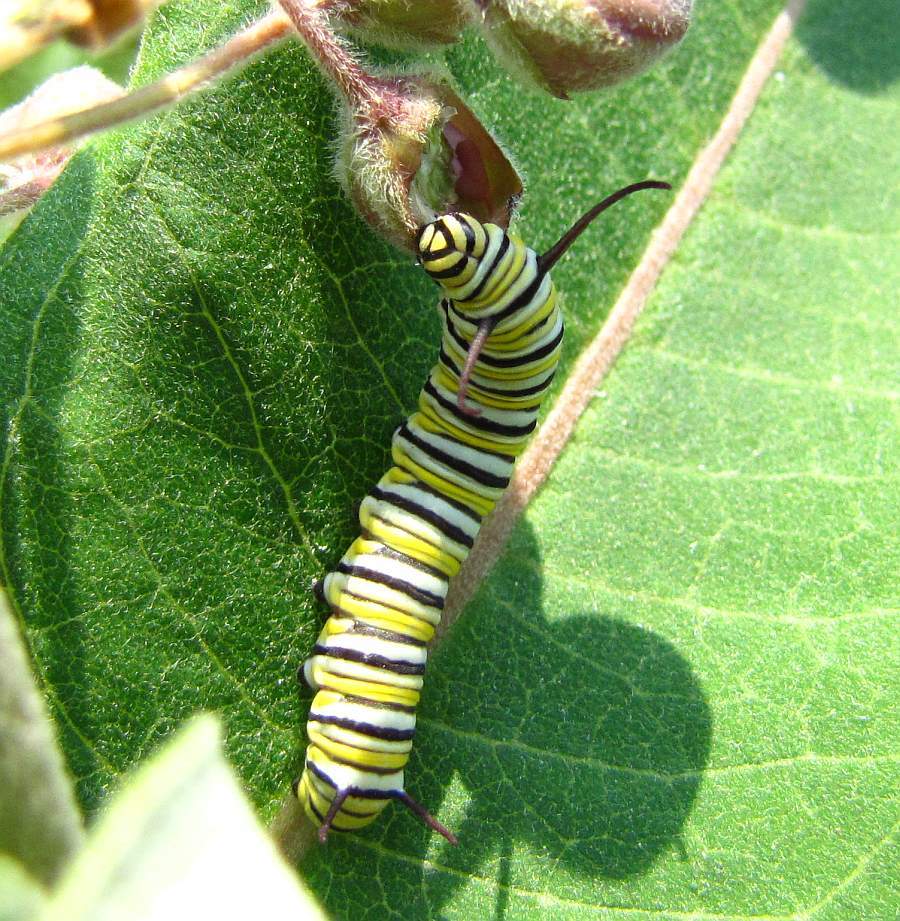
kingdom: Animalia
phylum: Arthropoda
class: Insecta
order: Lepidoptera
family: Nymphalidae
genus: Danaus
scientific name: Danaus plexippus
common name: Monarch
